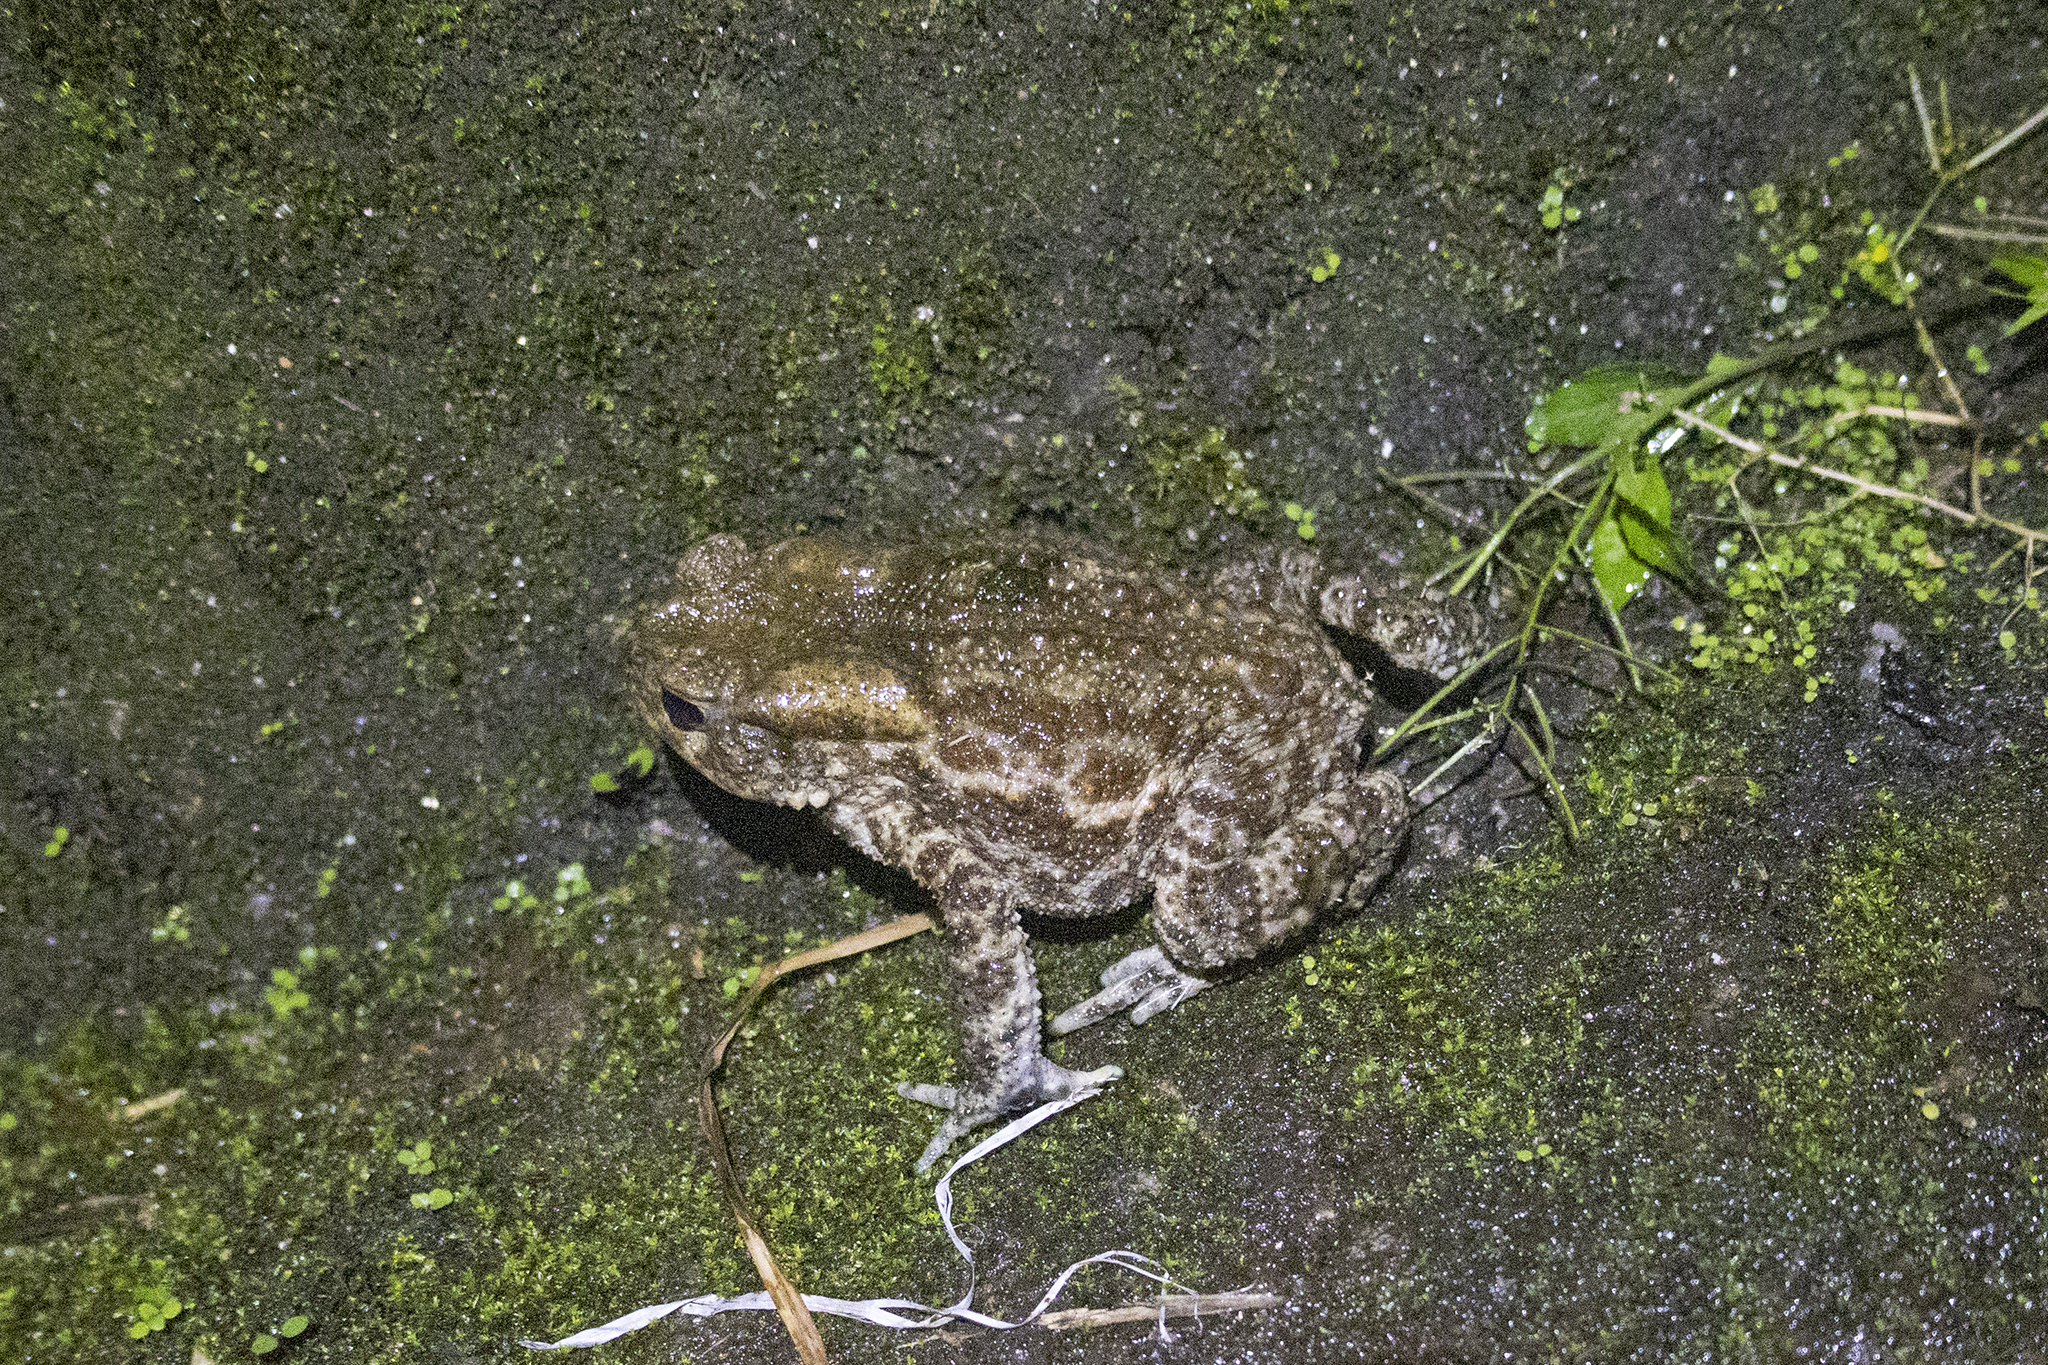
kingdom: Animalia
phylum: Chordata
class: Amphibia
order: Anura
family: Bufonidae
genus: Duttaphrynus
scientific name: Duttaphrynus himalayanus
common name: Günther's high altitude toad
